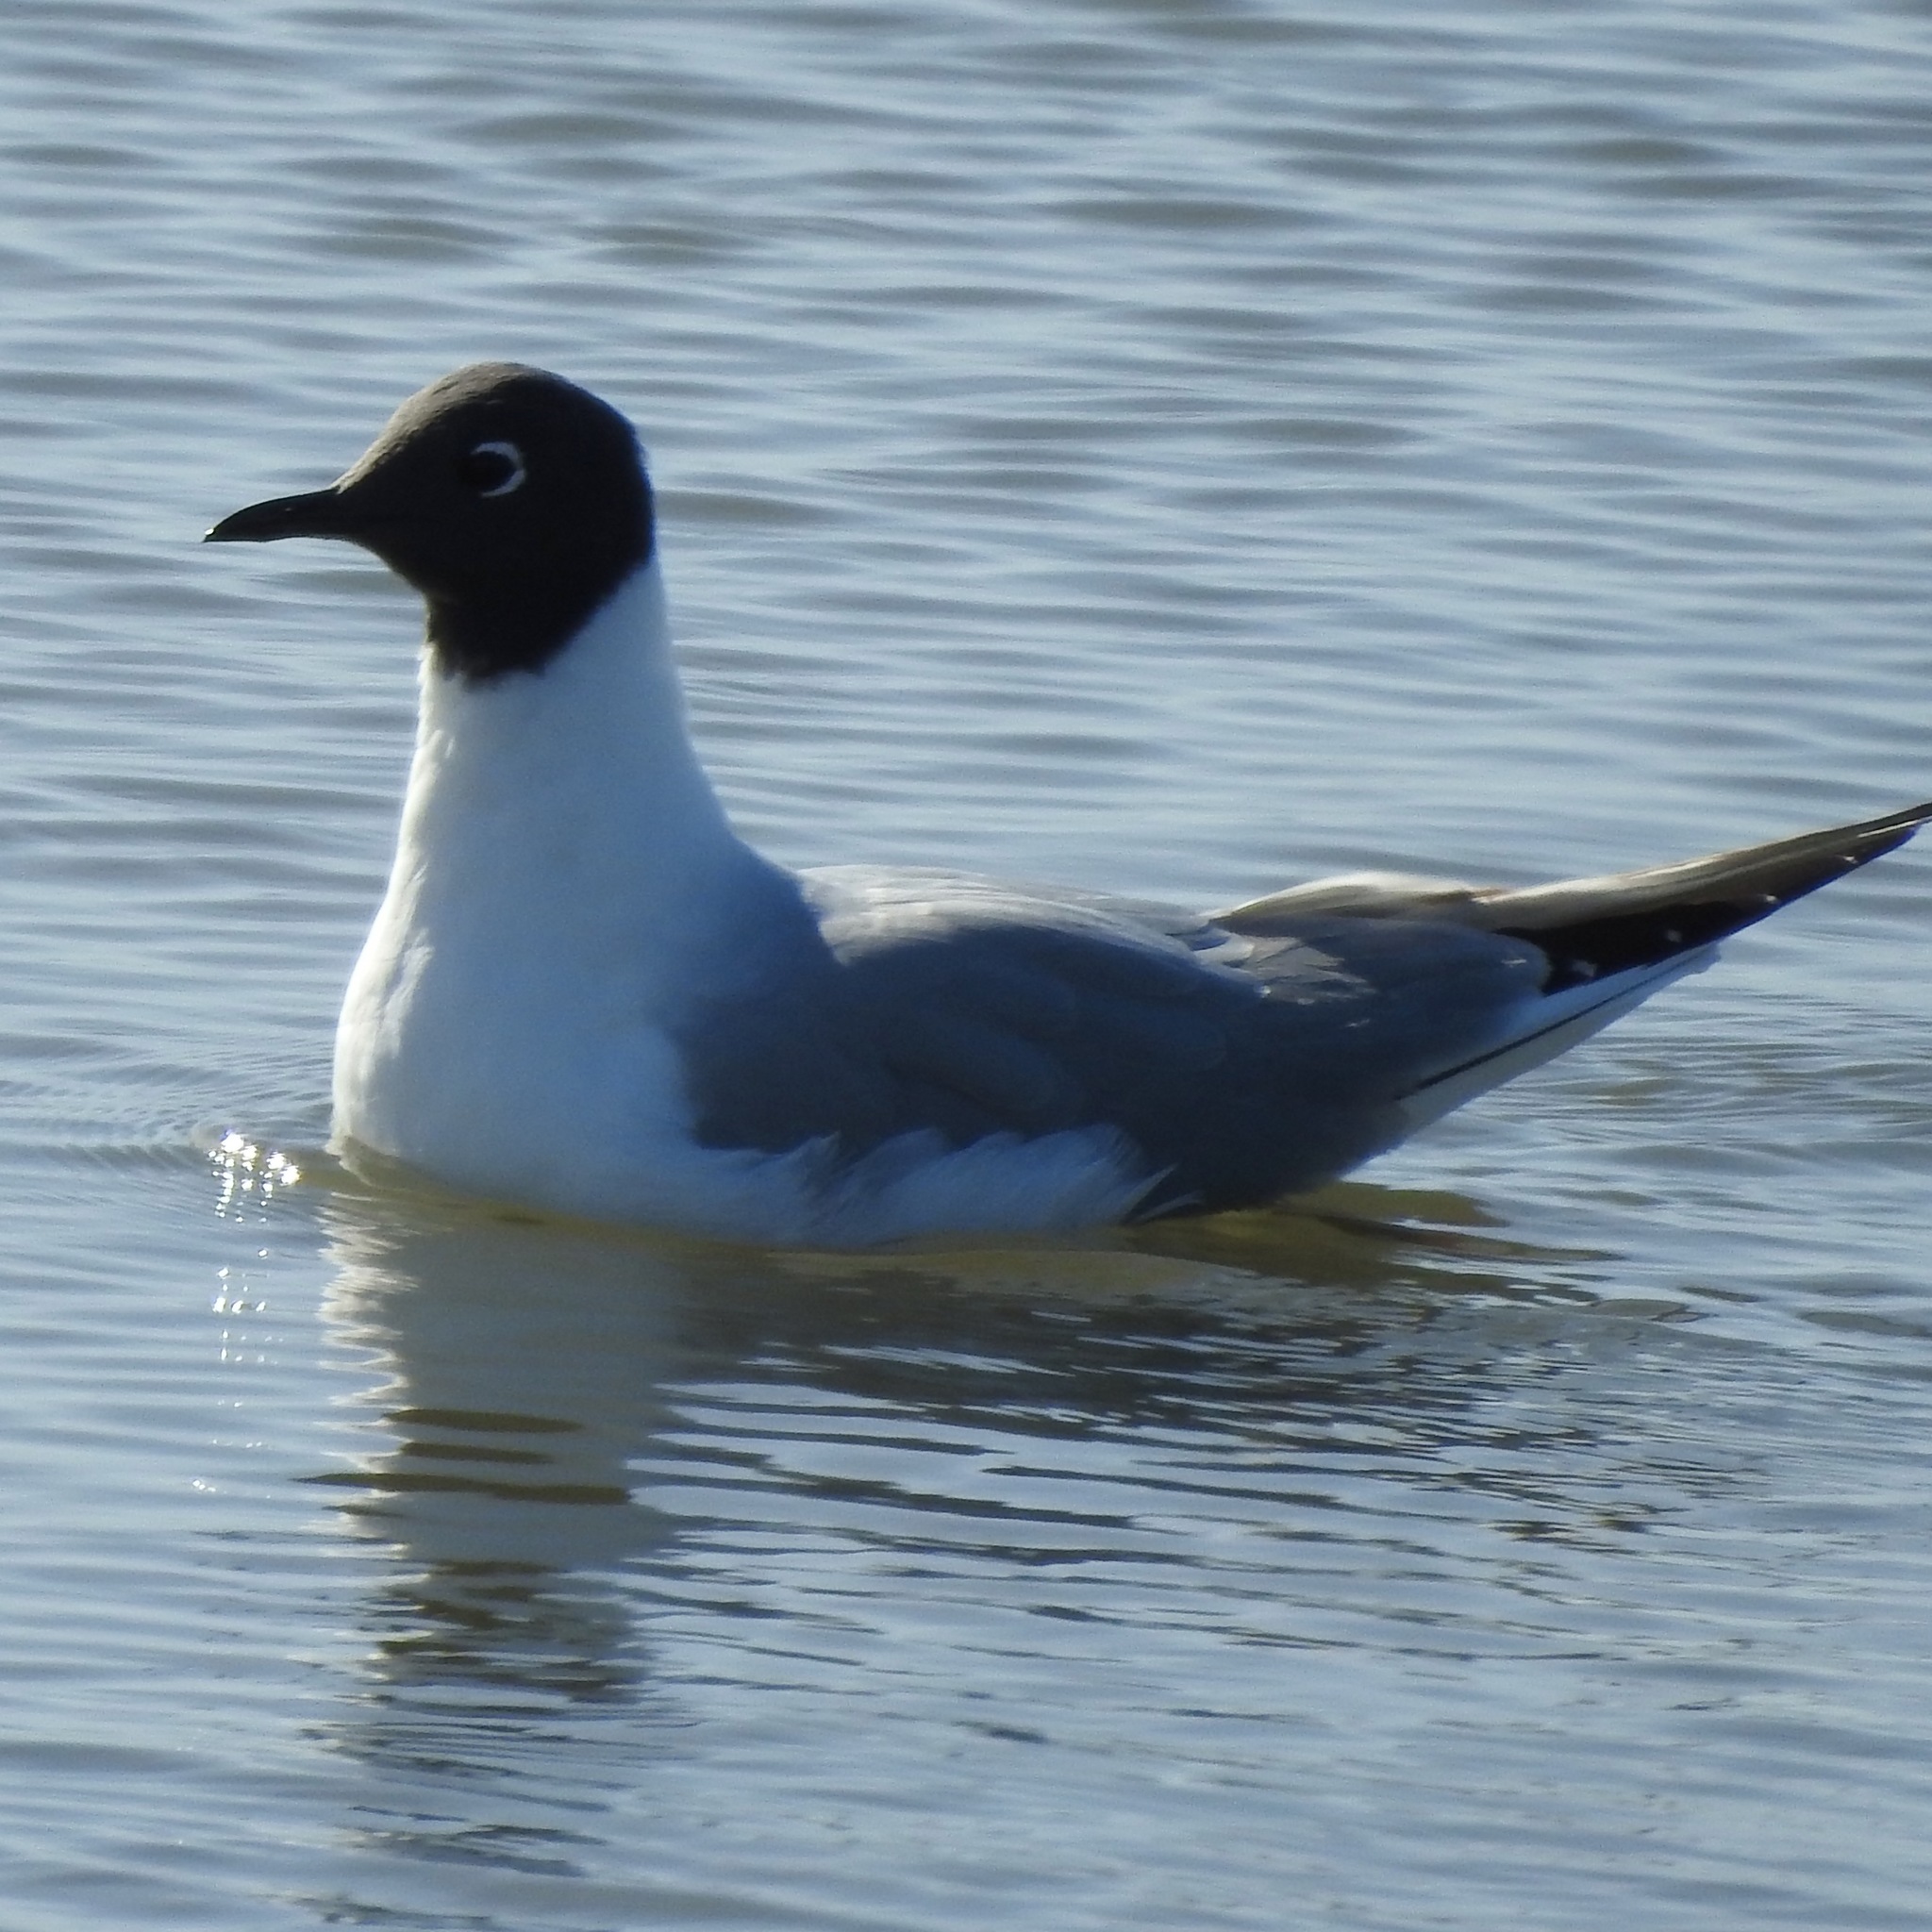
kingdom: Animalia
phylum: Chordata
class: Aves
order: Charadriiformes
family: Laridae
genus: Chroicocephalus
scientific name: Chroicocephalus philadelphia
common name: Bonaparte's gull
